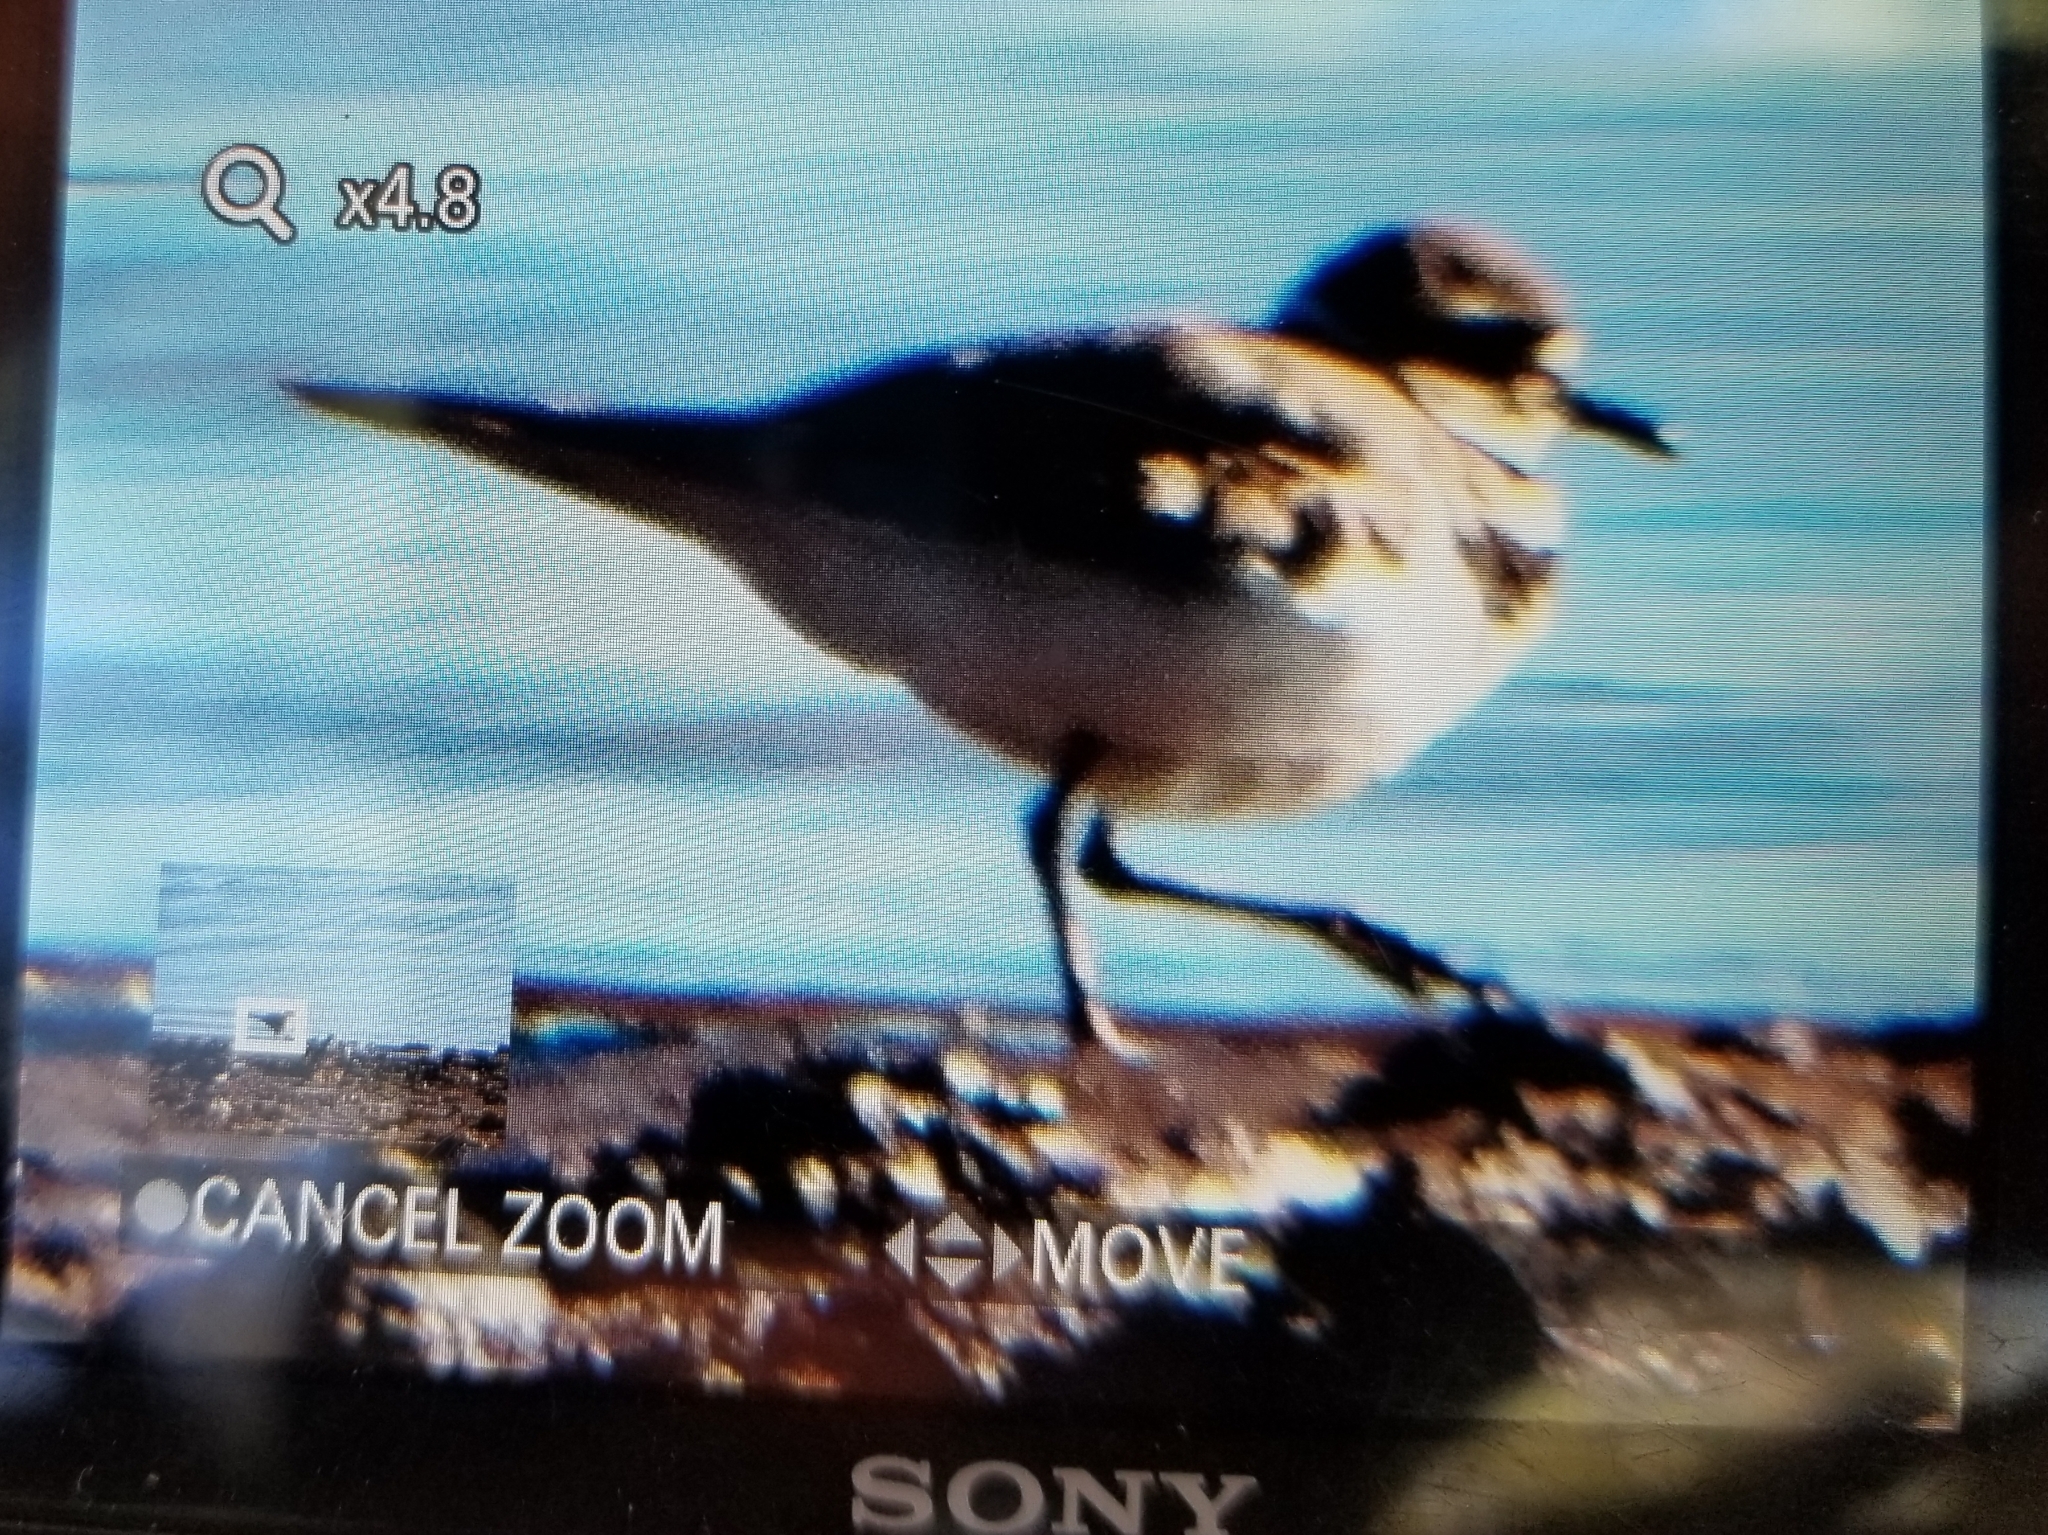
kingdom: Animalia
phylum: Chordata
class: Aves
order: Charadriiformes
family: Charadriidae
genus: Charadrius
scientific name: Charadrius vociferus
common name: Killdeer
